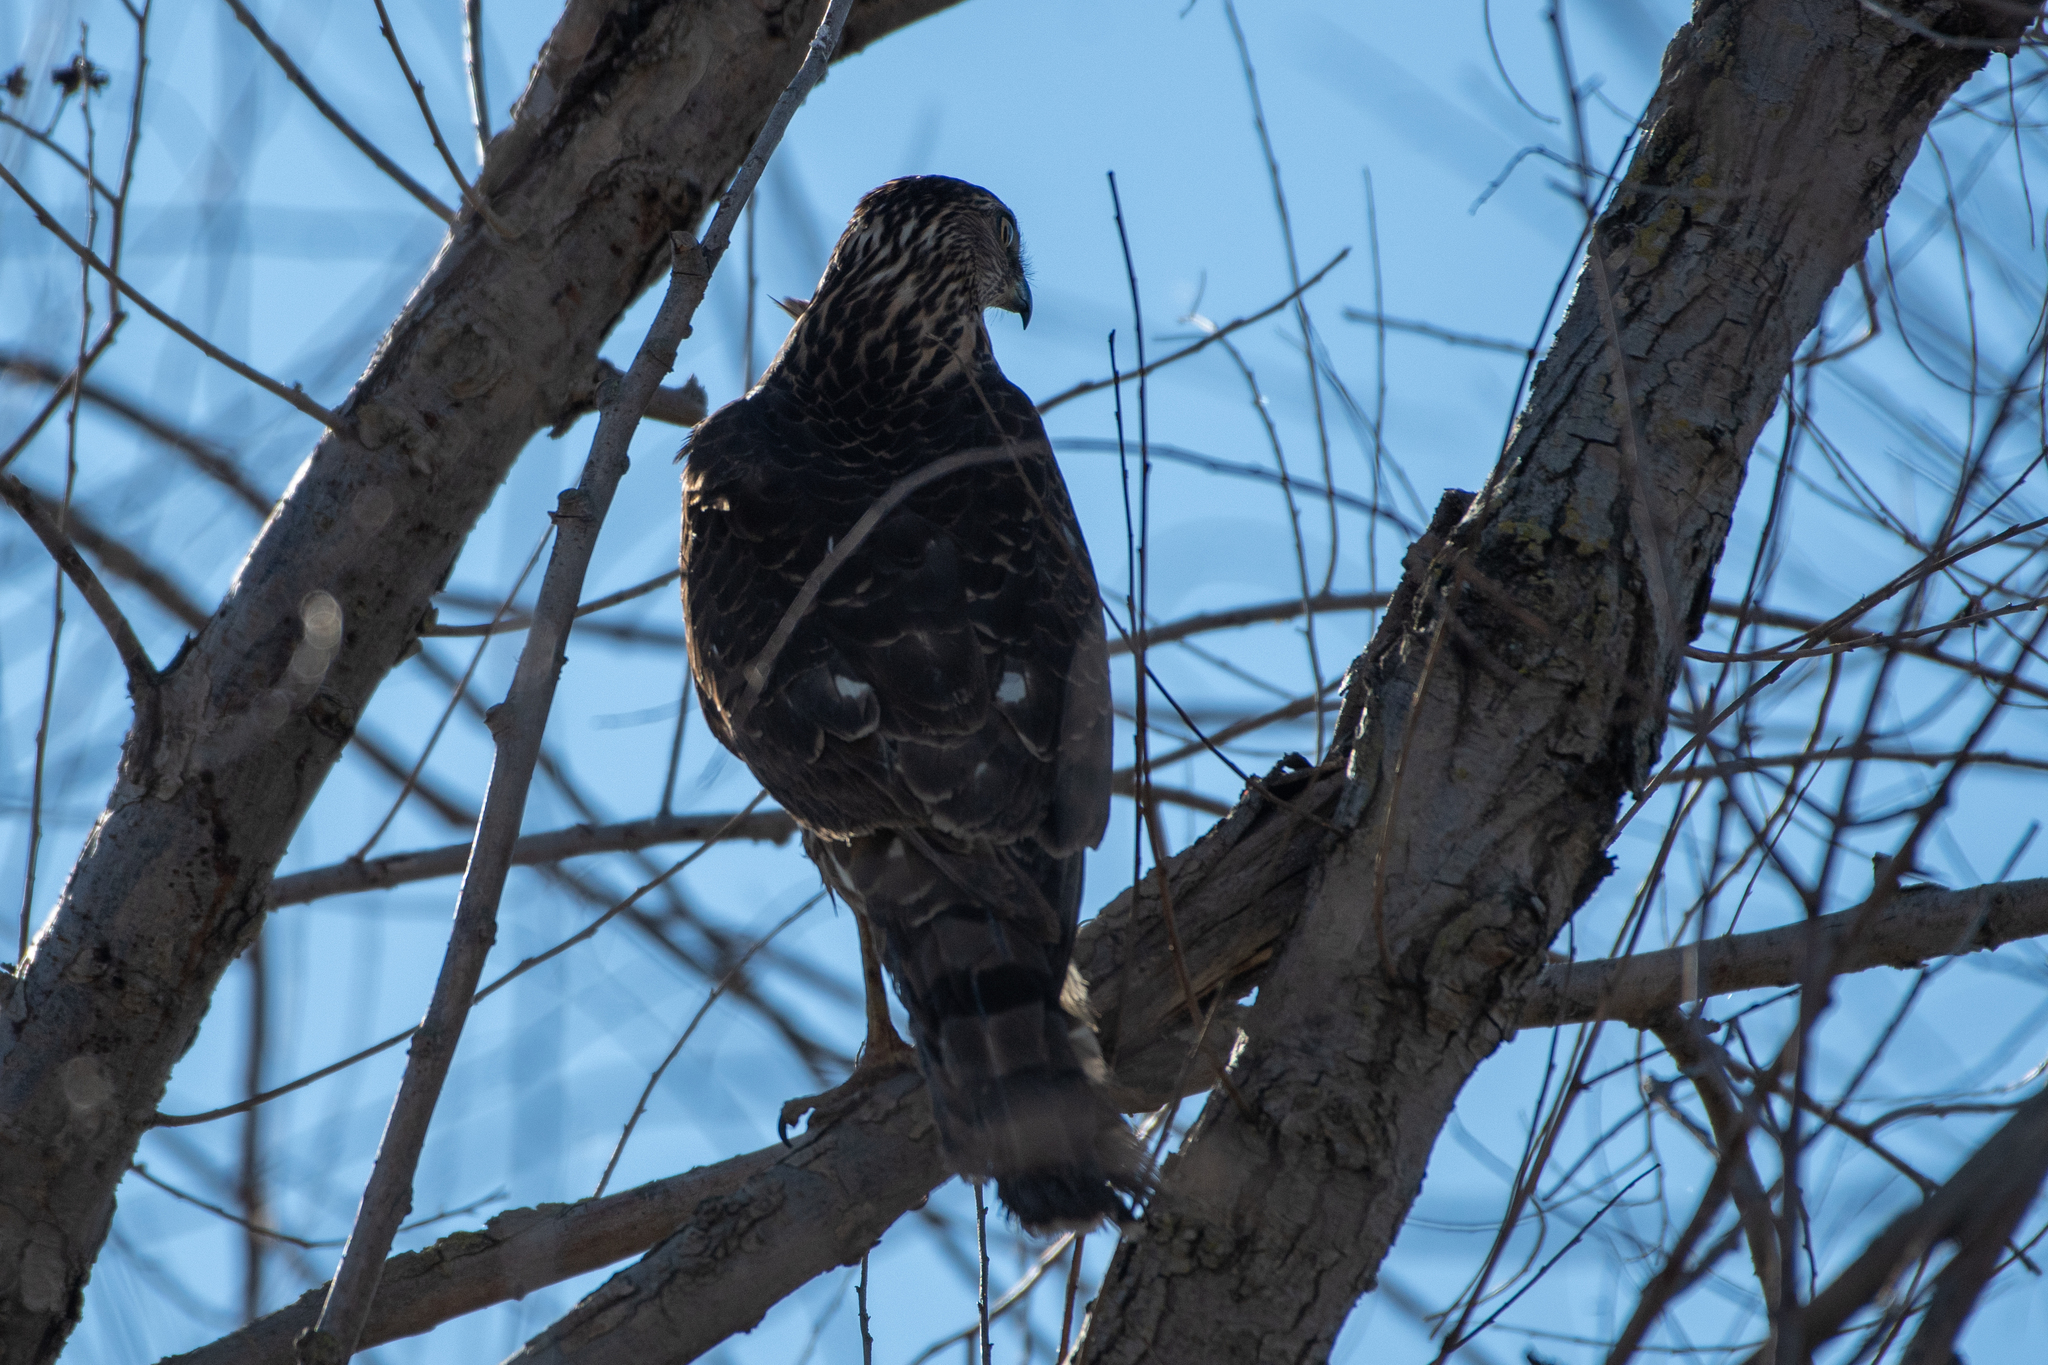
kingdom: Animalia
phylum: Chordata
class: Aves
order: Accipitriformes
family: Accipitridae
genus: Accipiter
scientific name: Accipiter cooperii
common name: Cooper's hawk
